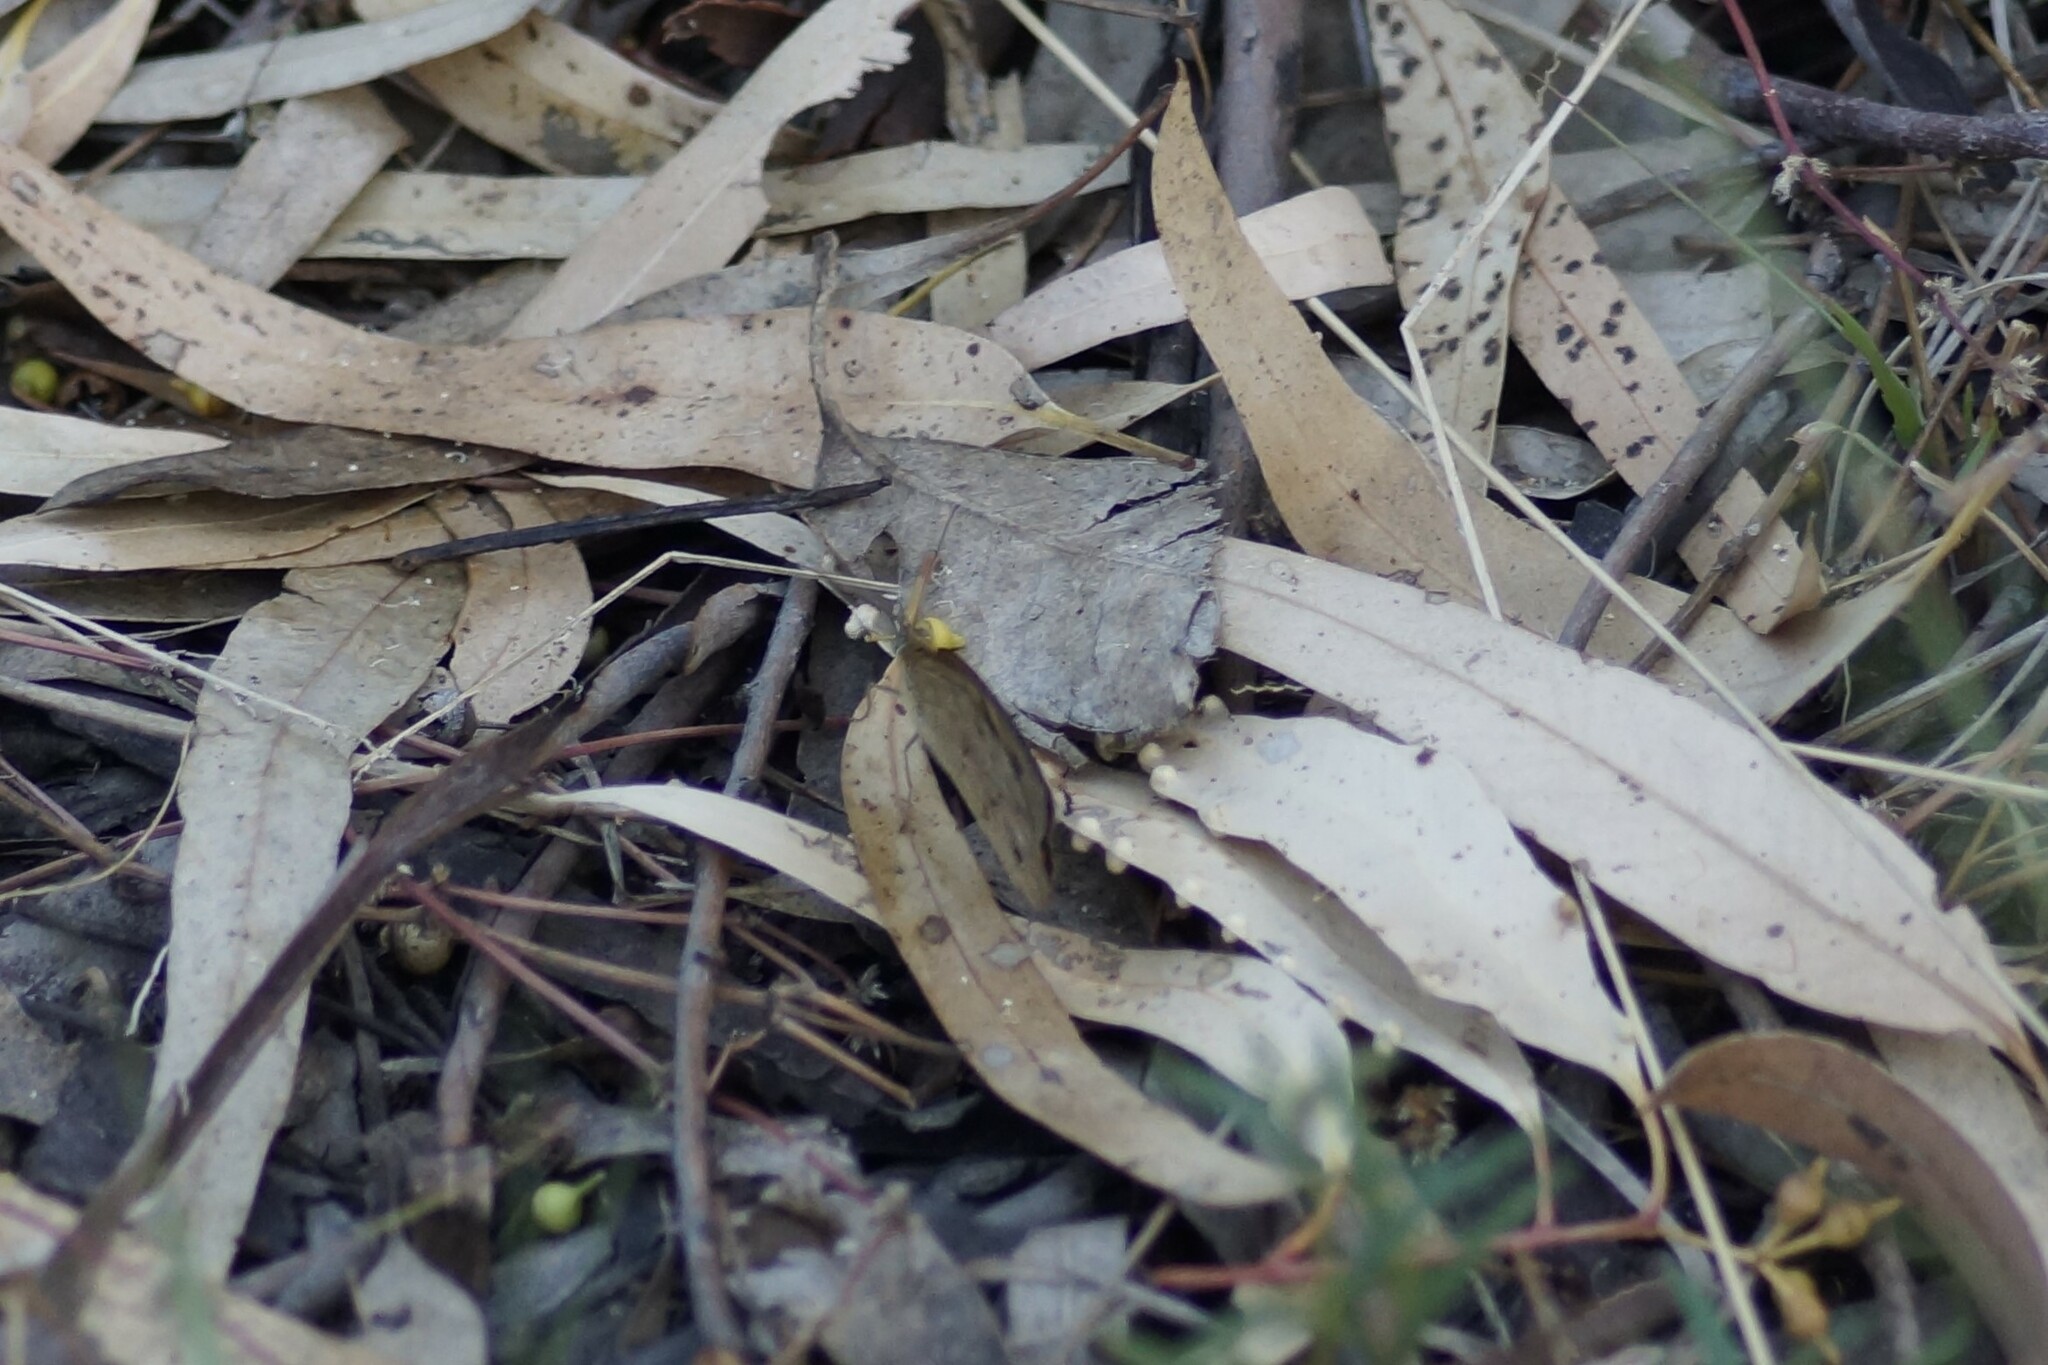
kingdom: Animalia
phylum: Arthropoda
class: Insecta
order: Lepidoptera
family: Nymphalidae
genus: Heteronympha
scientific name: Heteronympha merope
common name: Common brown
